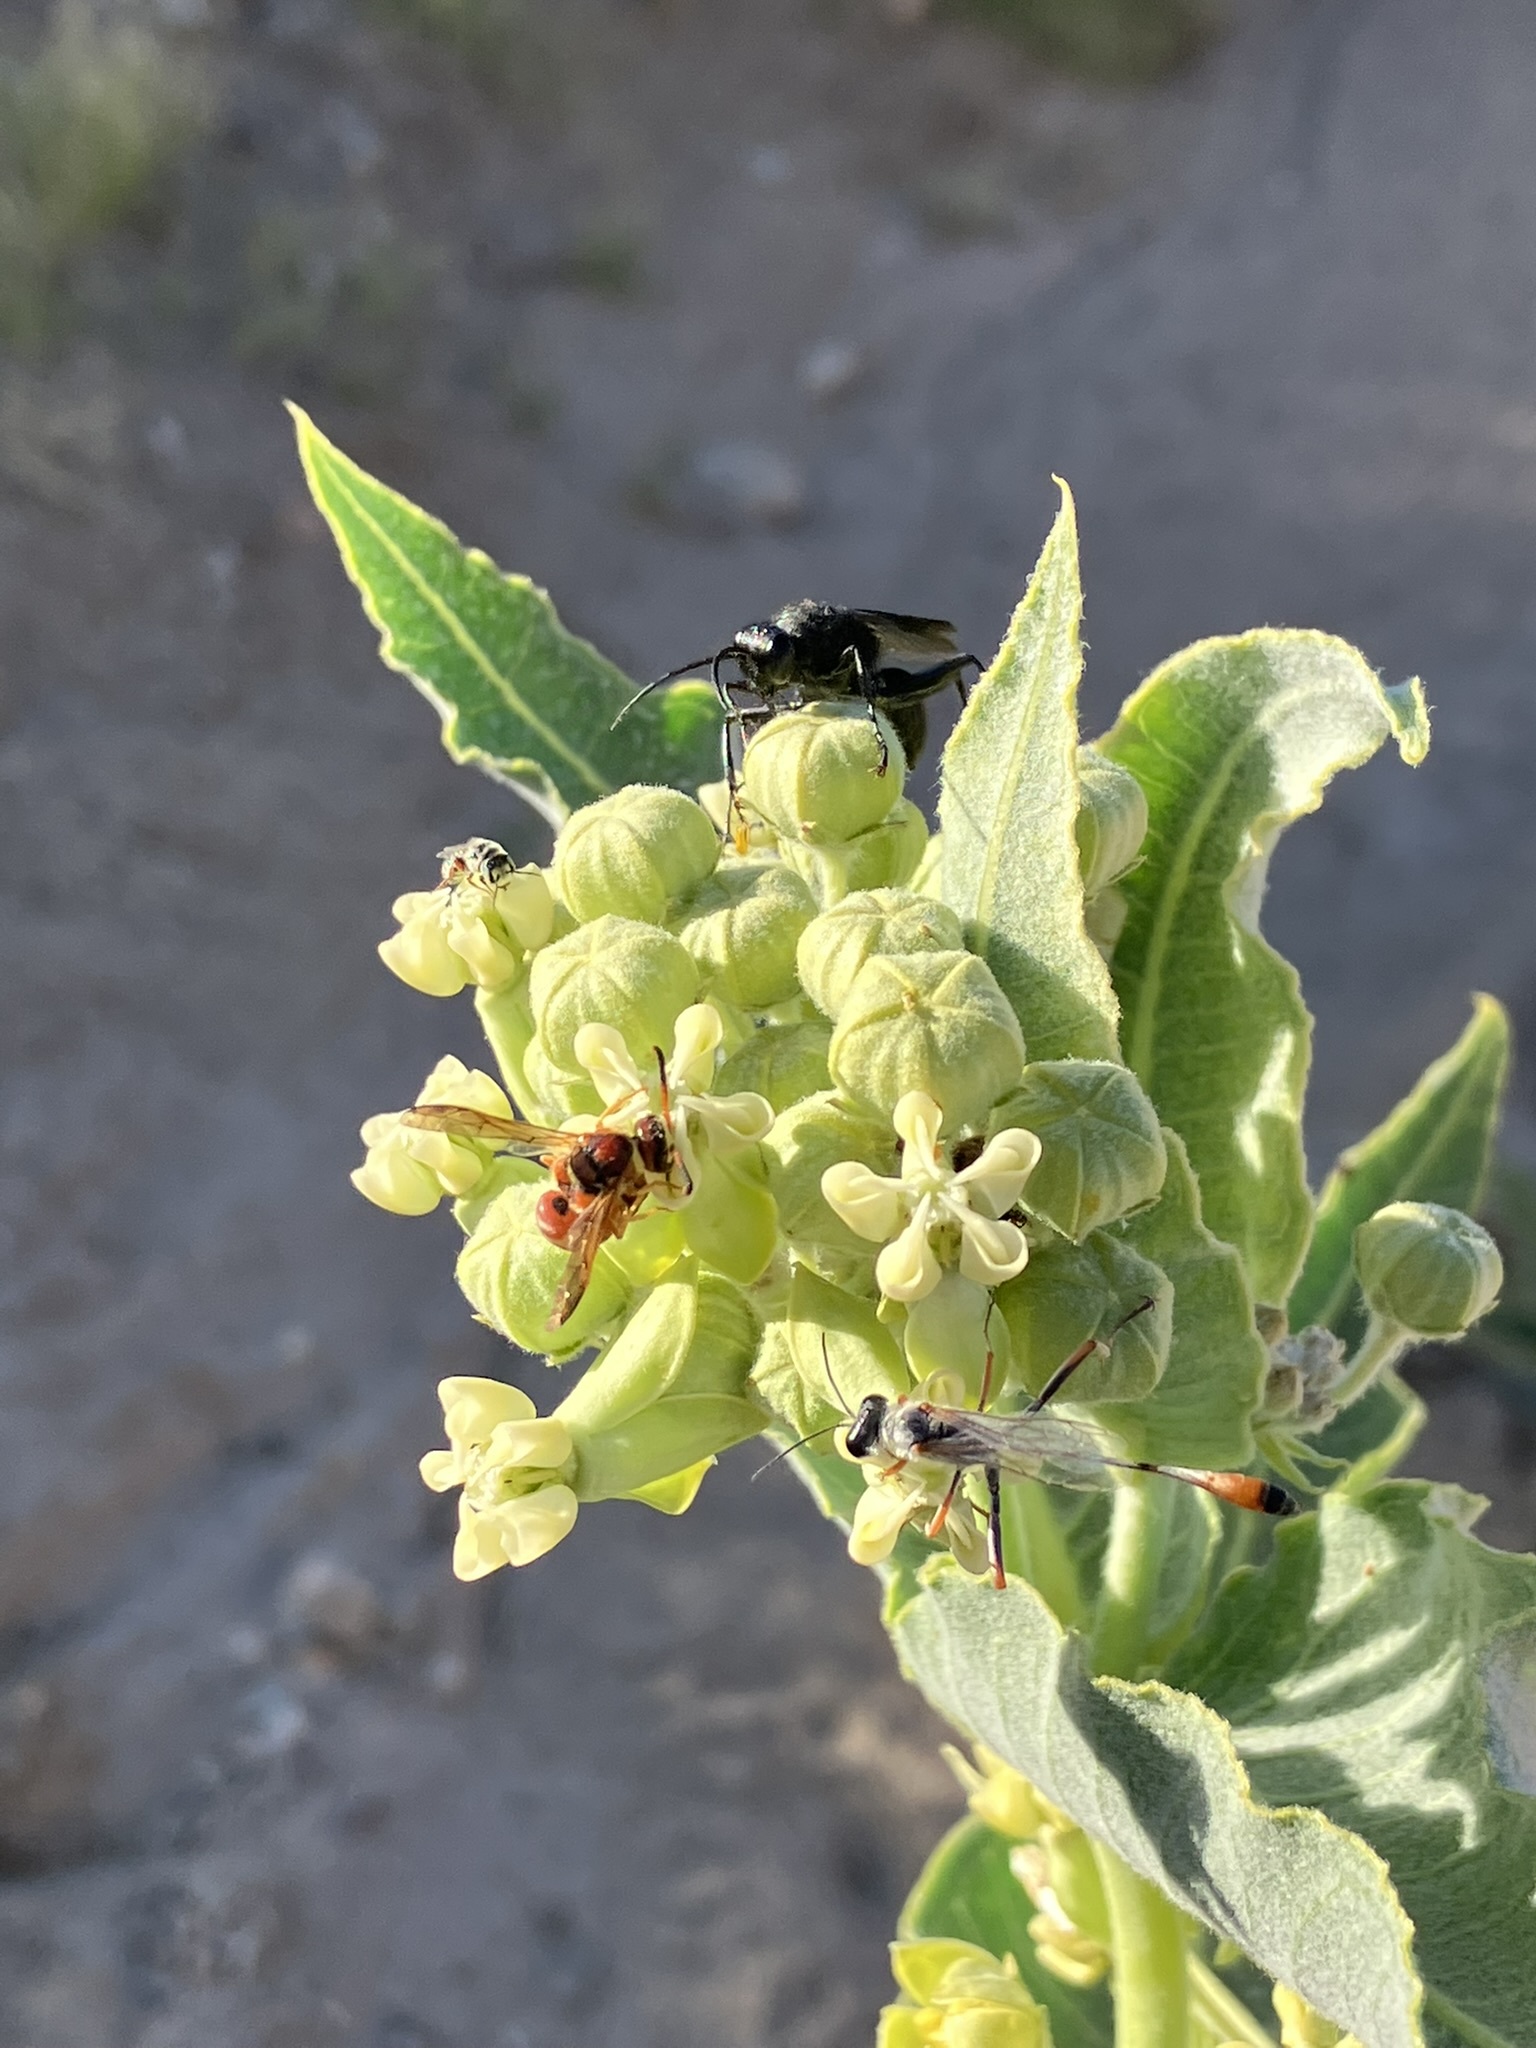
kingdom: Animalia
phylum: Arthropoda
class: Insecta
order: Hymenoptera
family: Eumenidae
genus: Euodynerus
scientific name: Euodynerus pratensis
